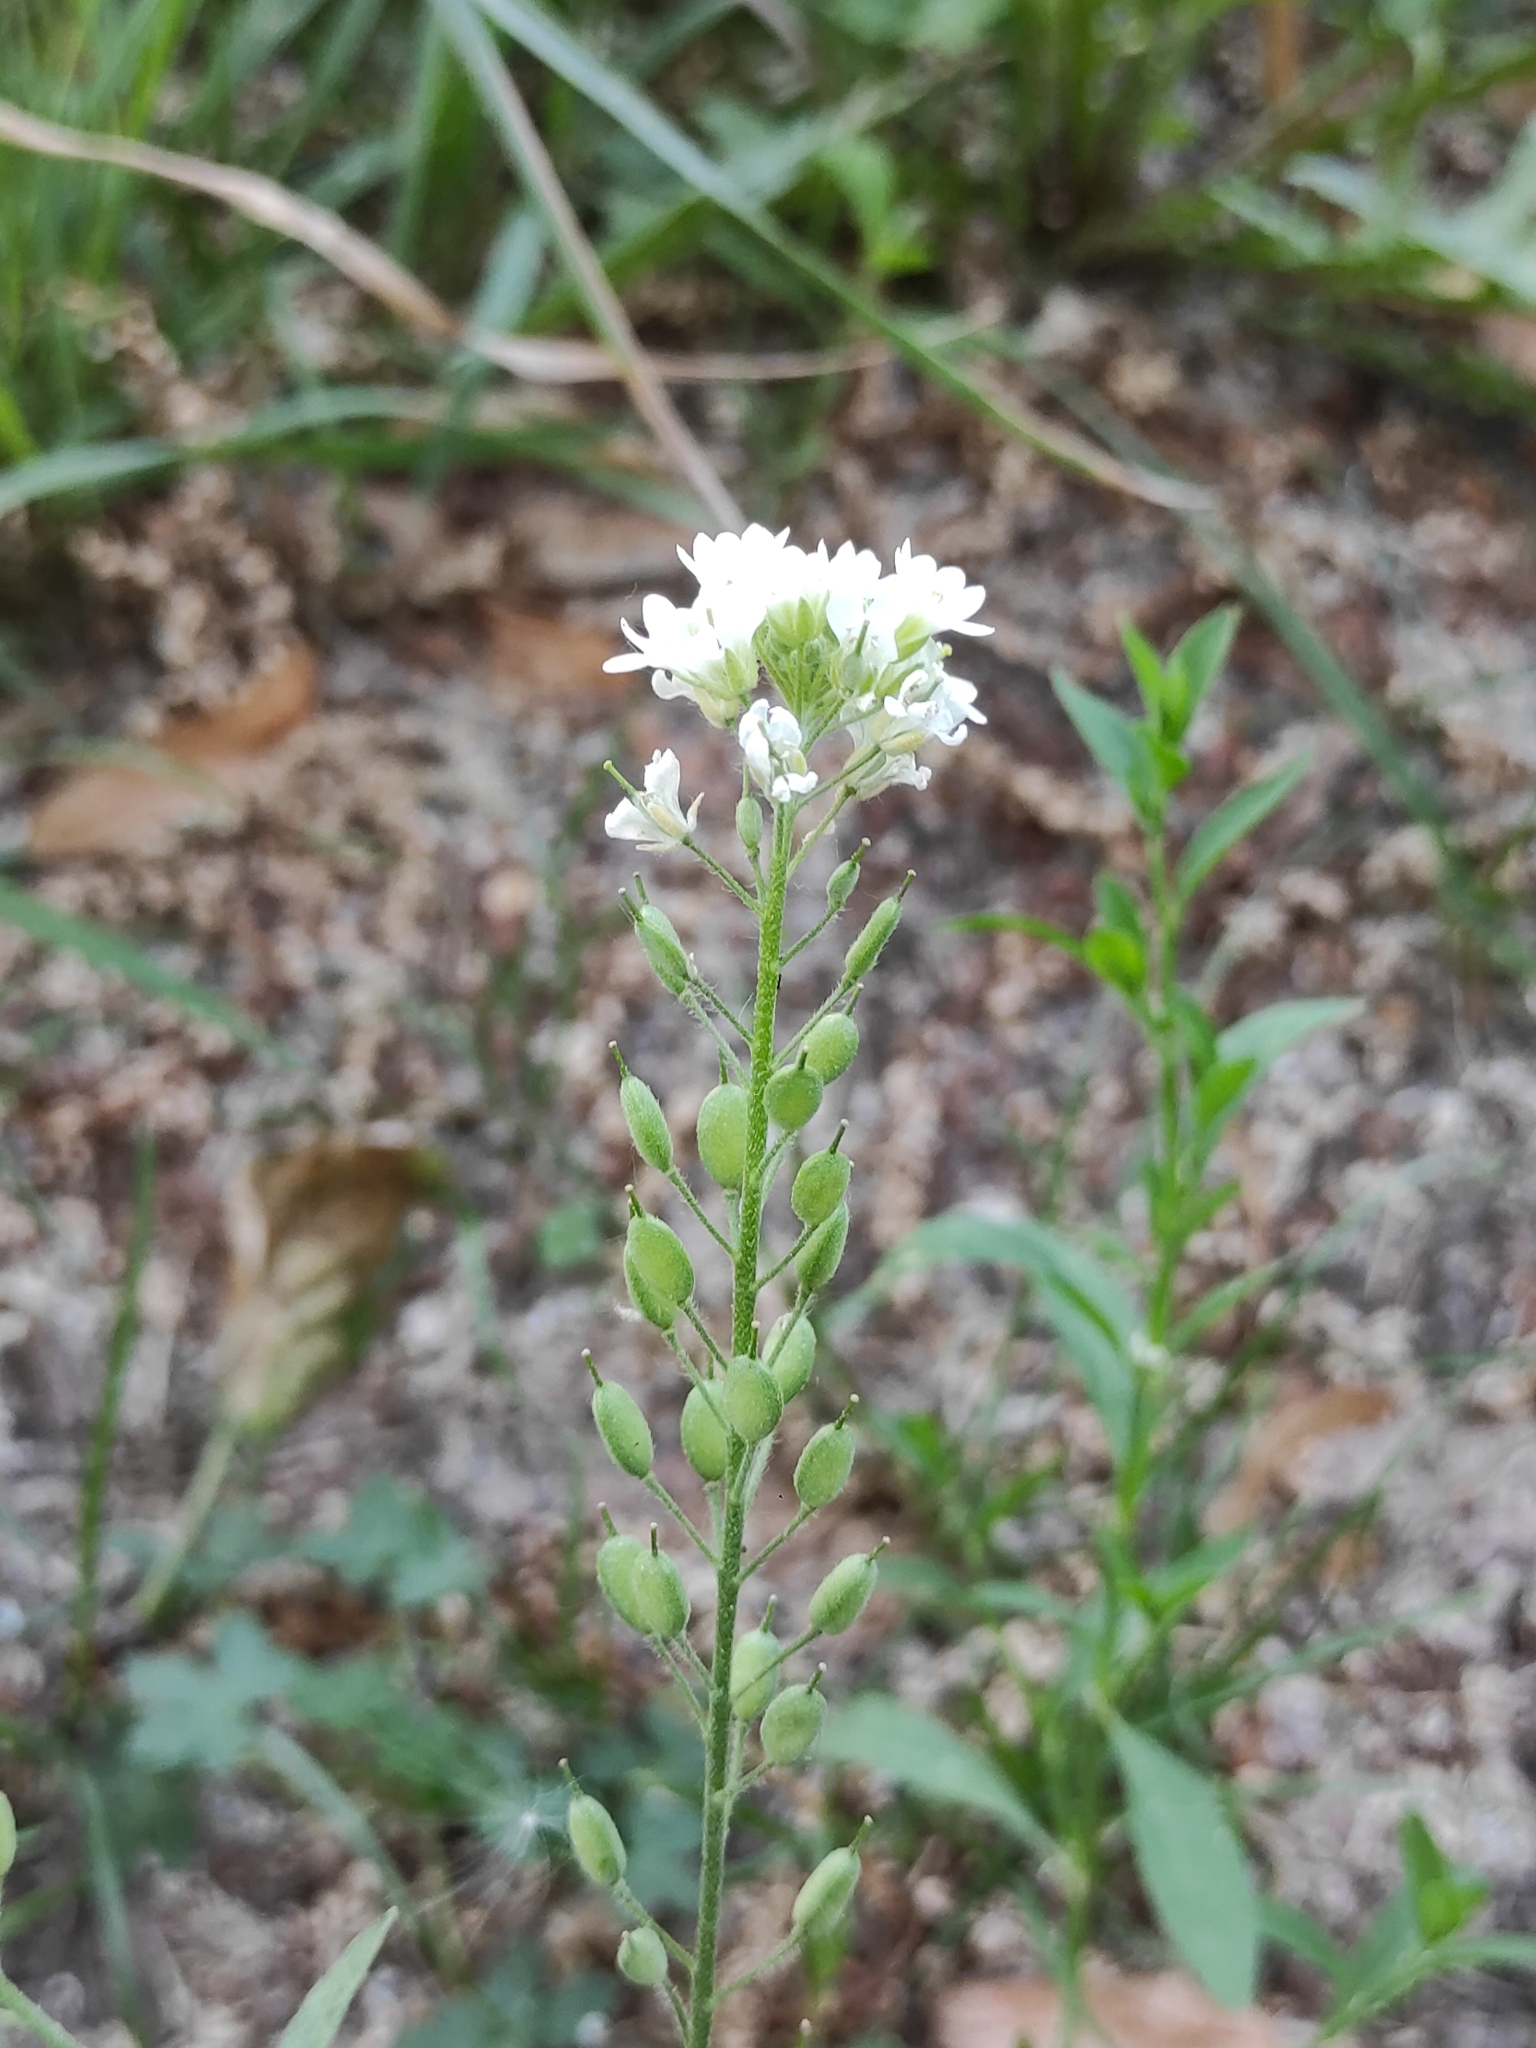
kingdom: Plantae
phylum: Tracheophyta
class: Magnoliopsida
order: Brassicales
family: Brassicaceae
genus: Berteroa
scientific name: Berteroa incana
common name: Hoary alison
